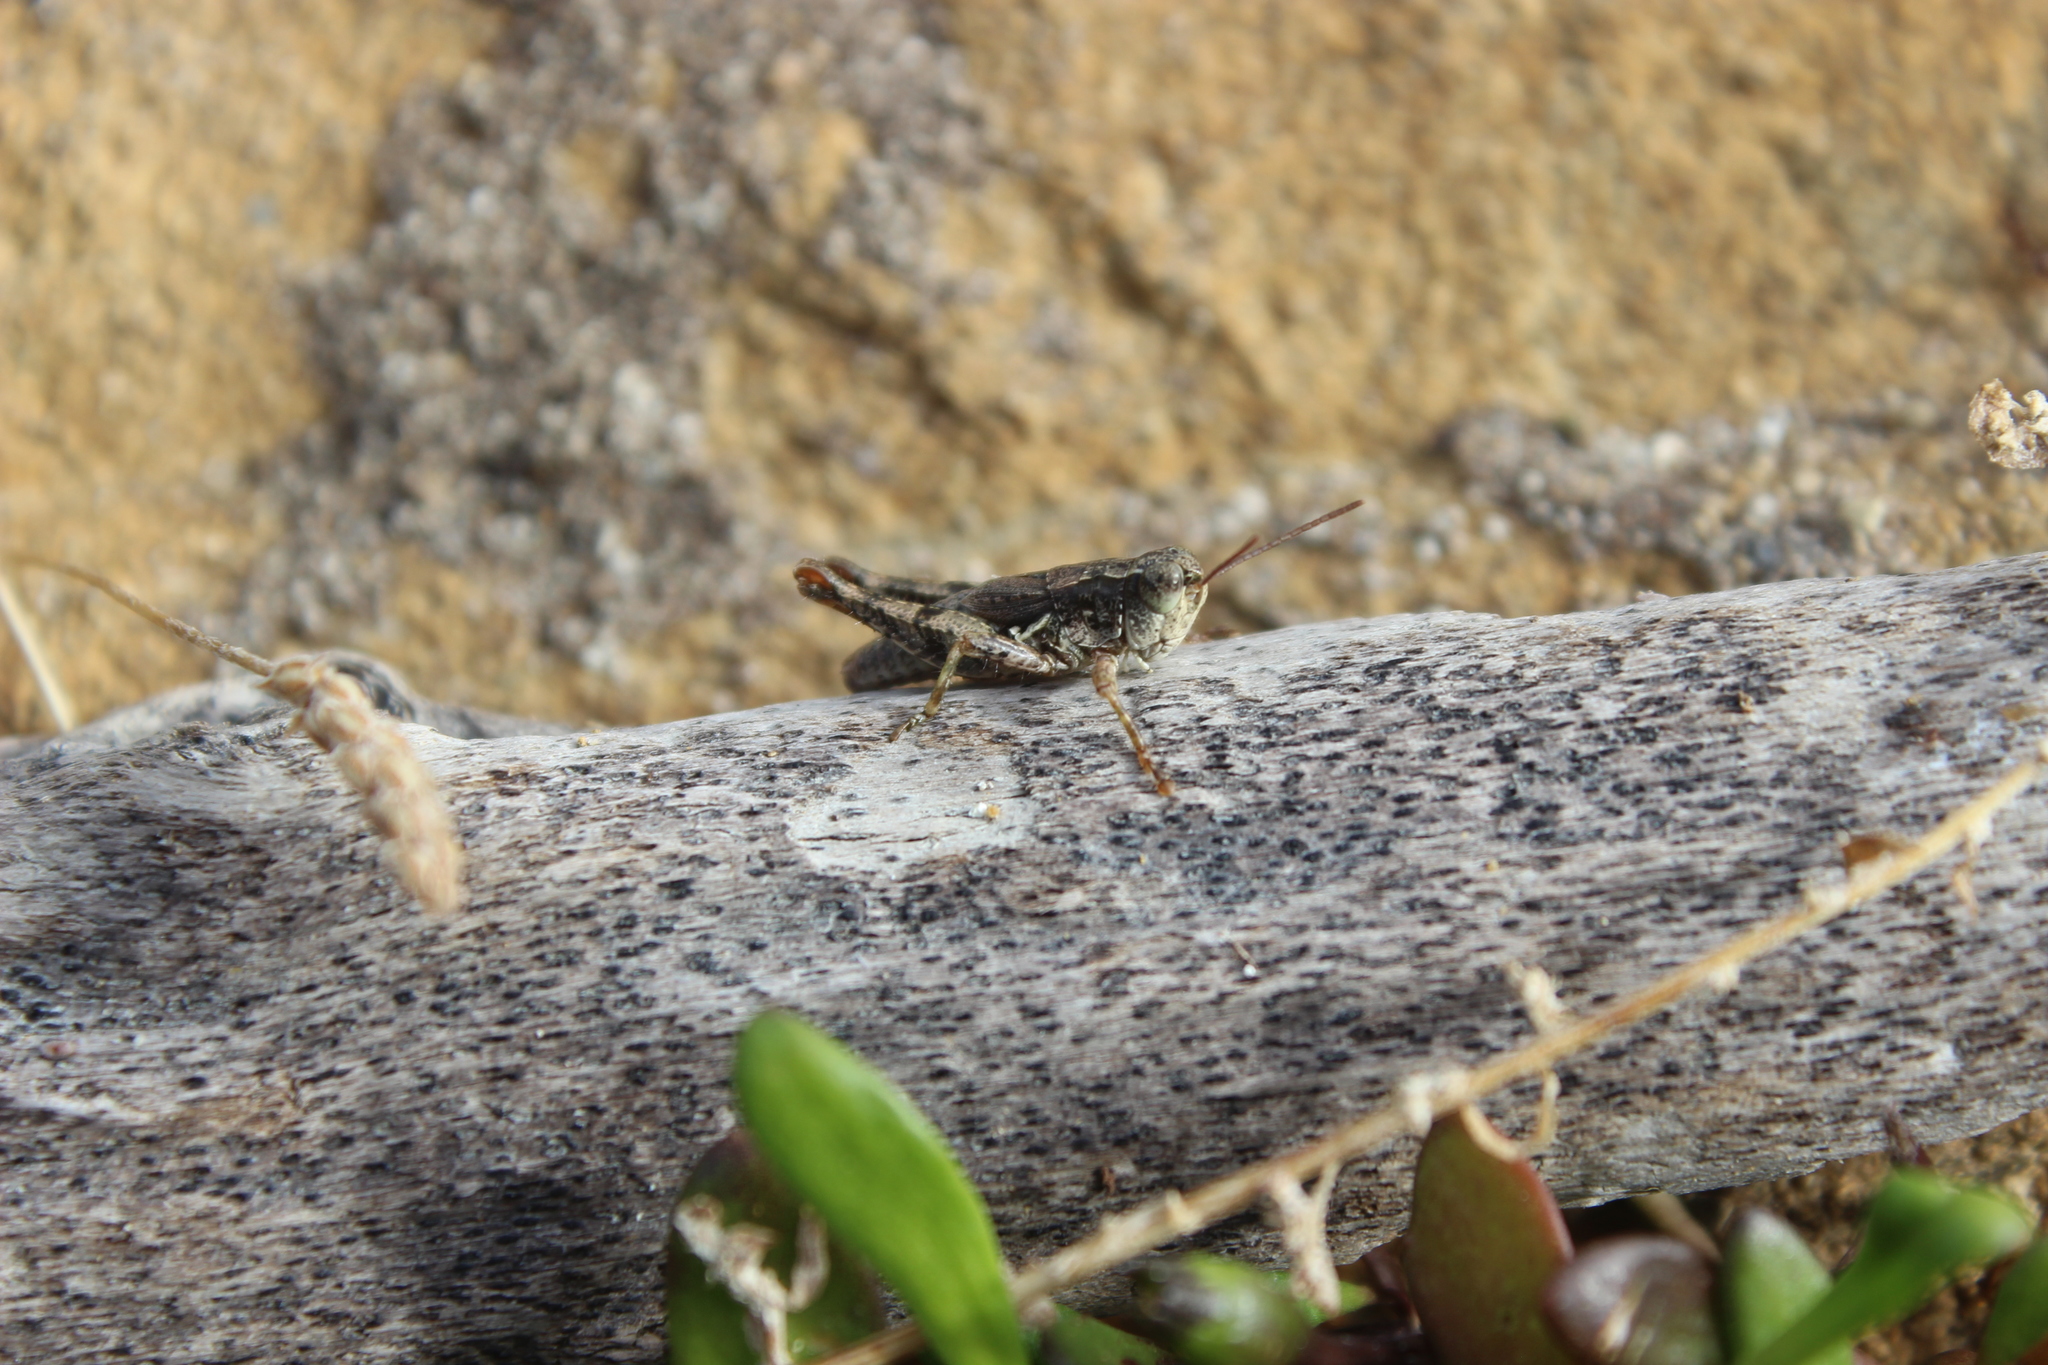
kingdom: Animalia
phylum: Arthropoda
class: Insecta
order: Orthoptera
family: Acrididae
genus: Phaulacridium
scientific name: Phaulacridium marginale
